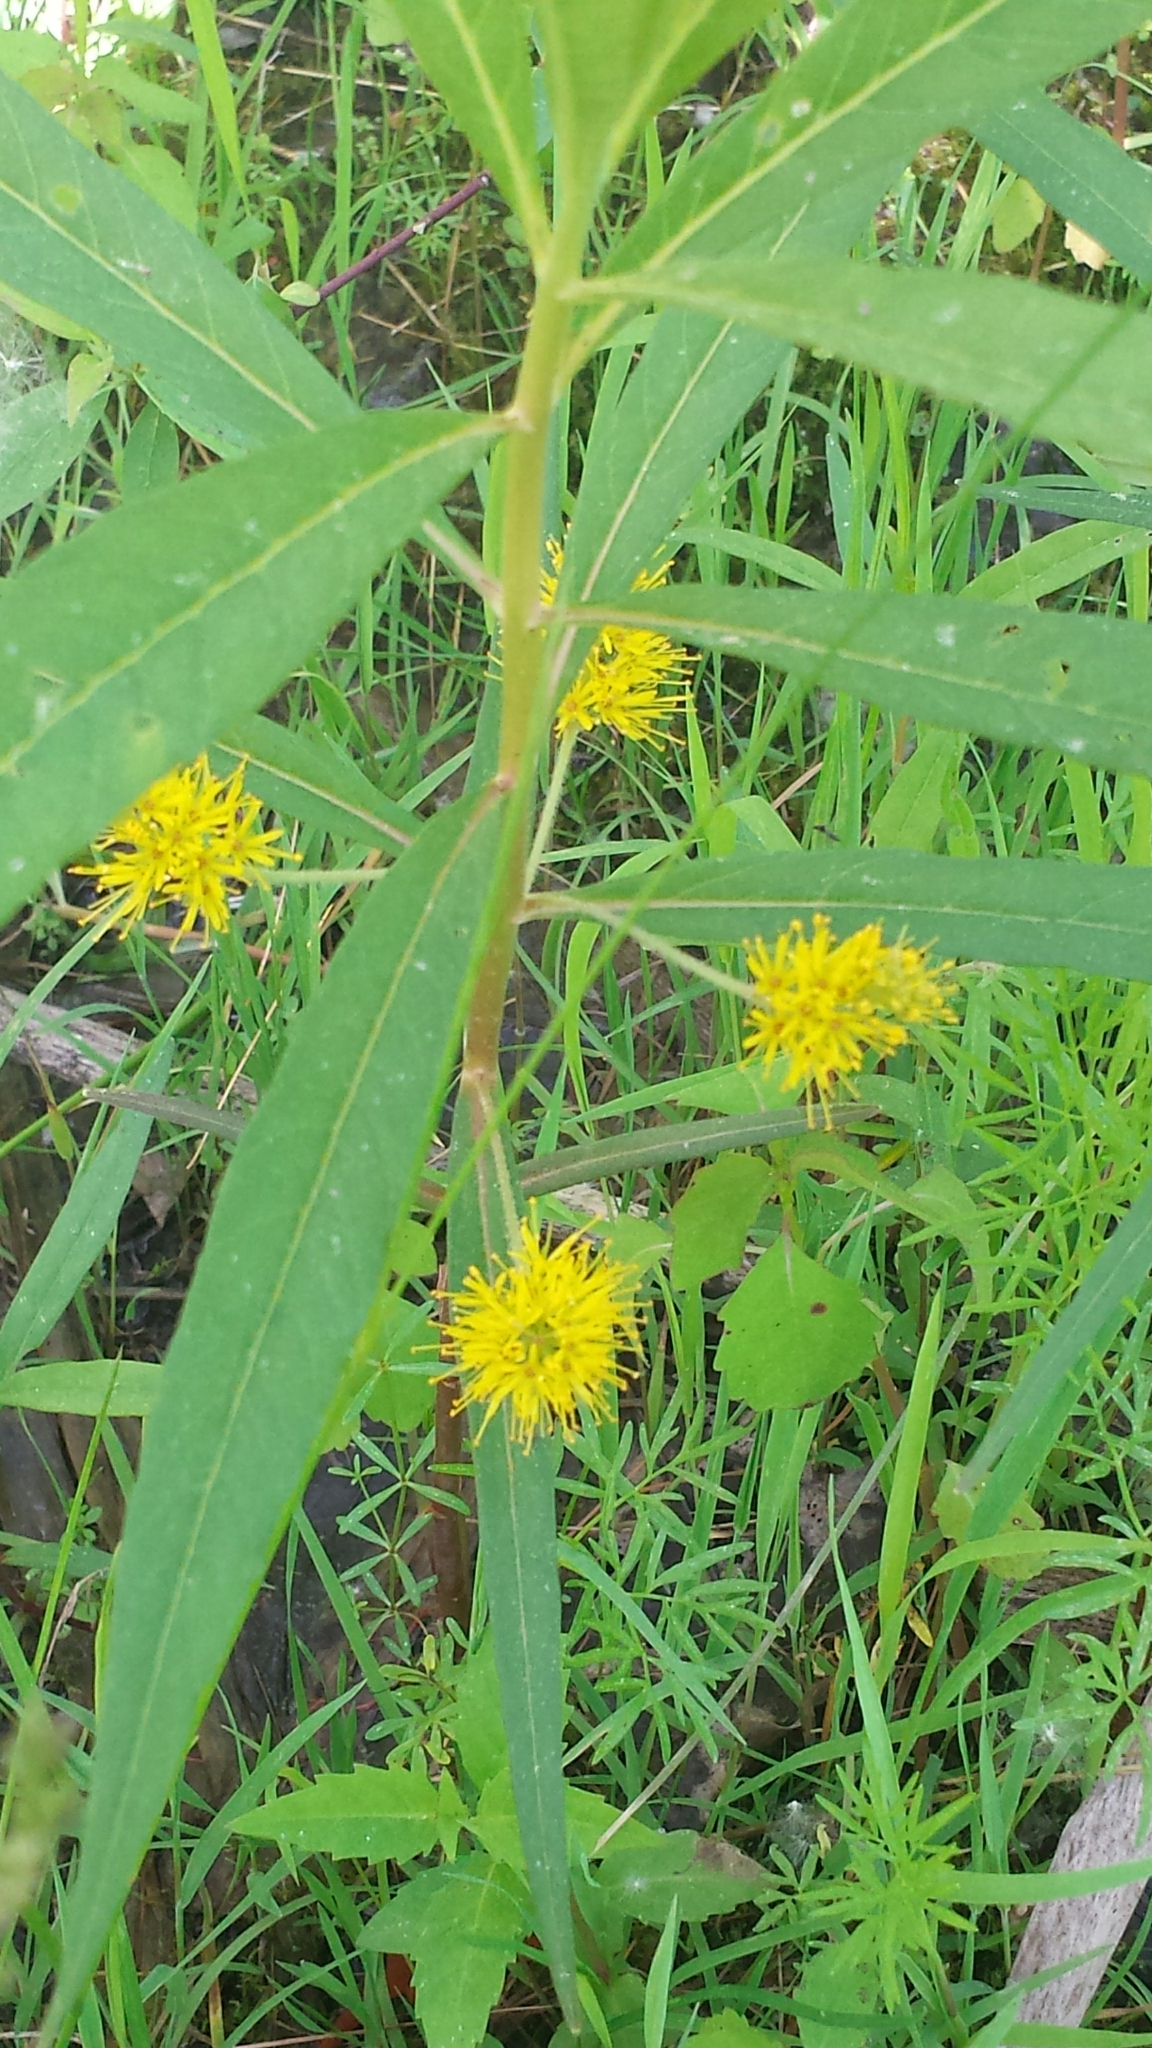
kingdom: Plantae
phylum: Tracheophyta
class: Magnoliopsida
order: Ericales
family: Primulaceae
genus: Lysimachia
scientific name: Lysimachia thyrsiflora
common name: Tufted loosestrife
